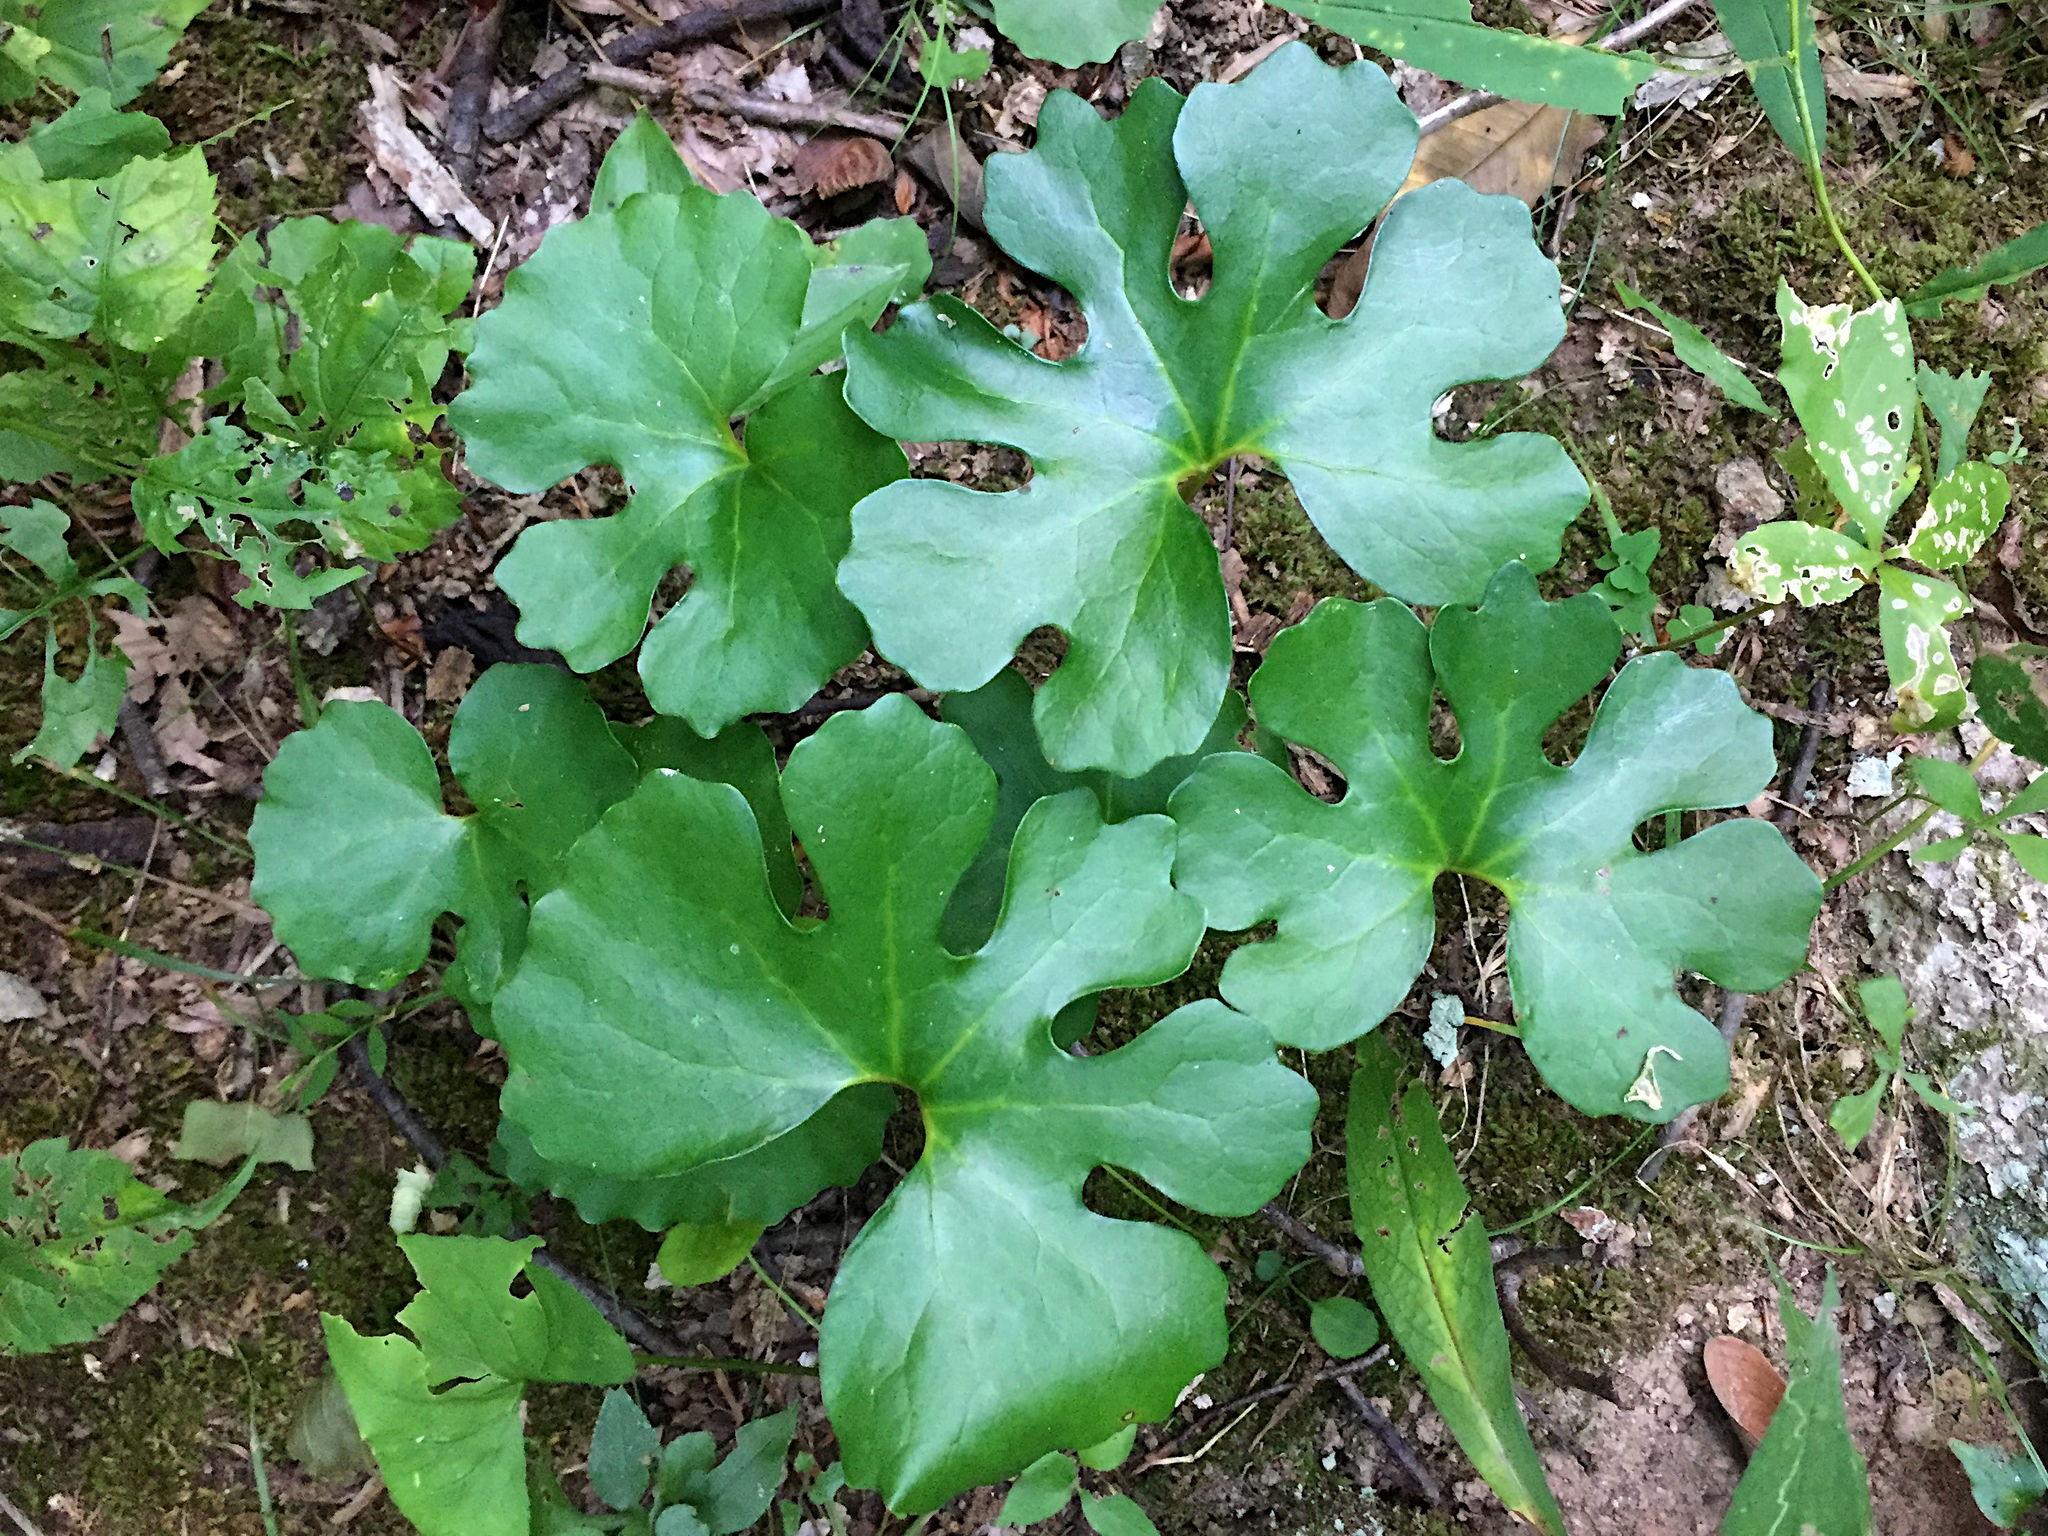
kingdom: Plantae
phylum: Tracheophyta
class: Magnoliopsida
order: Ranunculales
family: Papaveraceae
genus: Sanguinaria
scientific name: Sanguinaria canadensis
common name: Bloodroot
